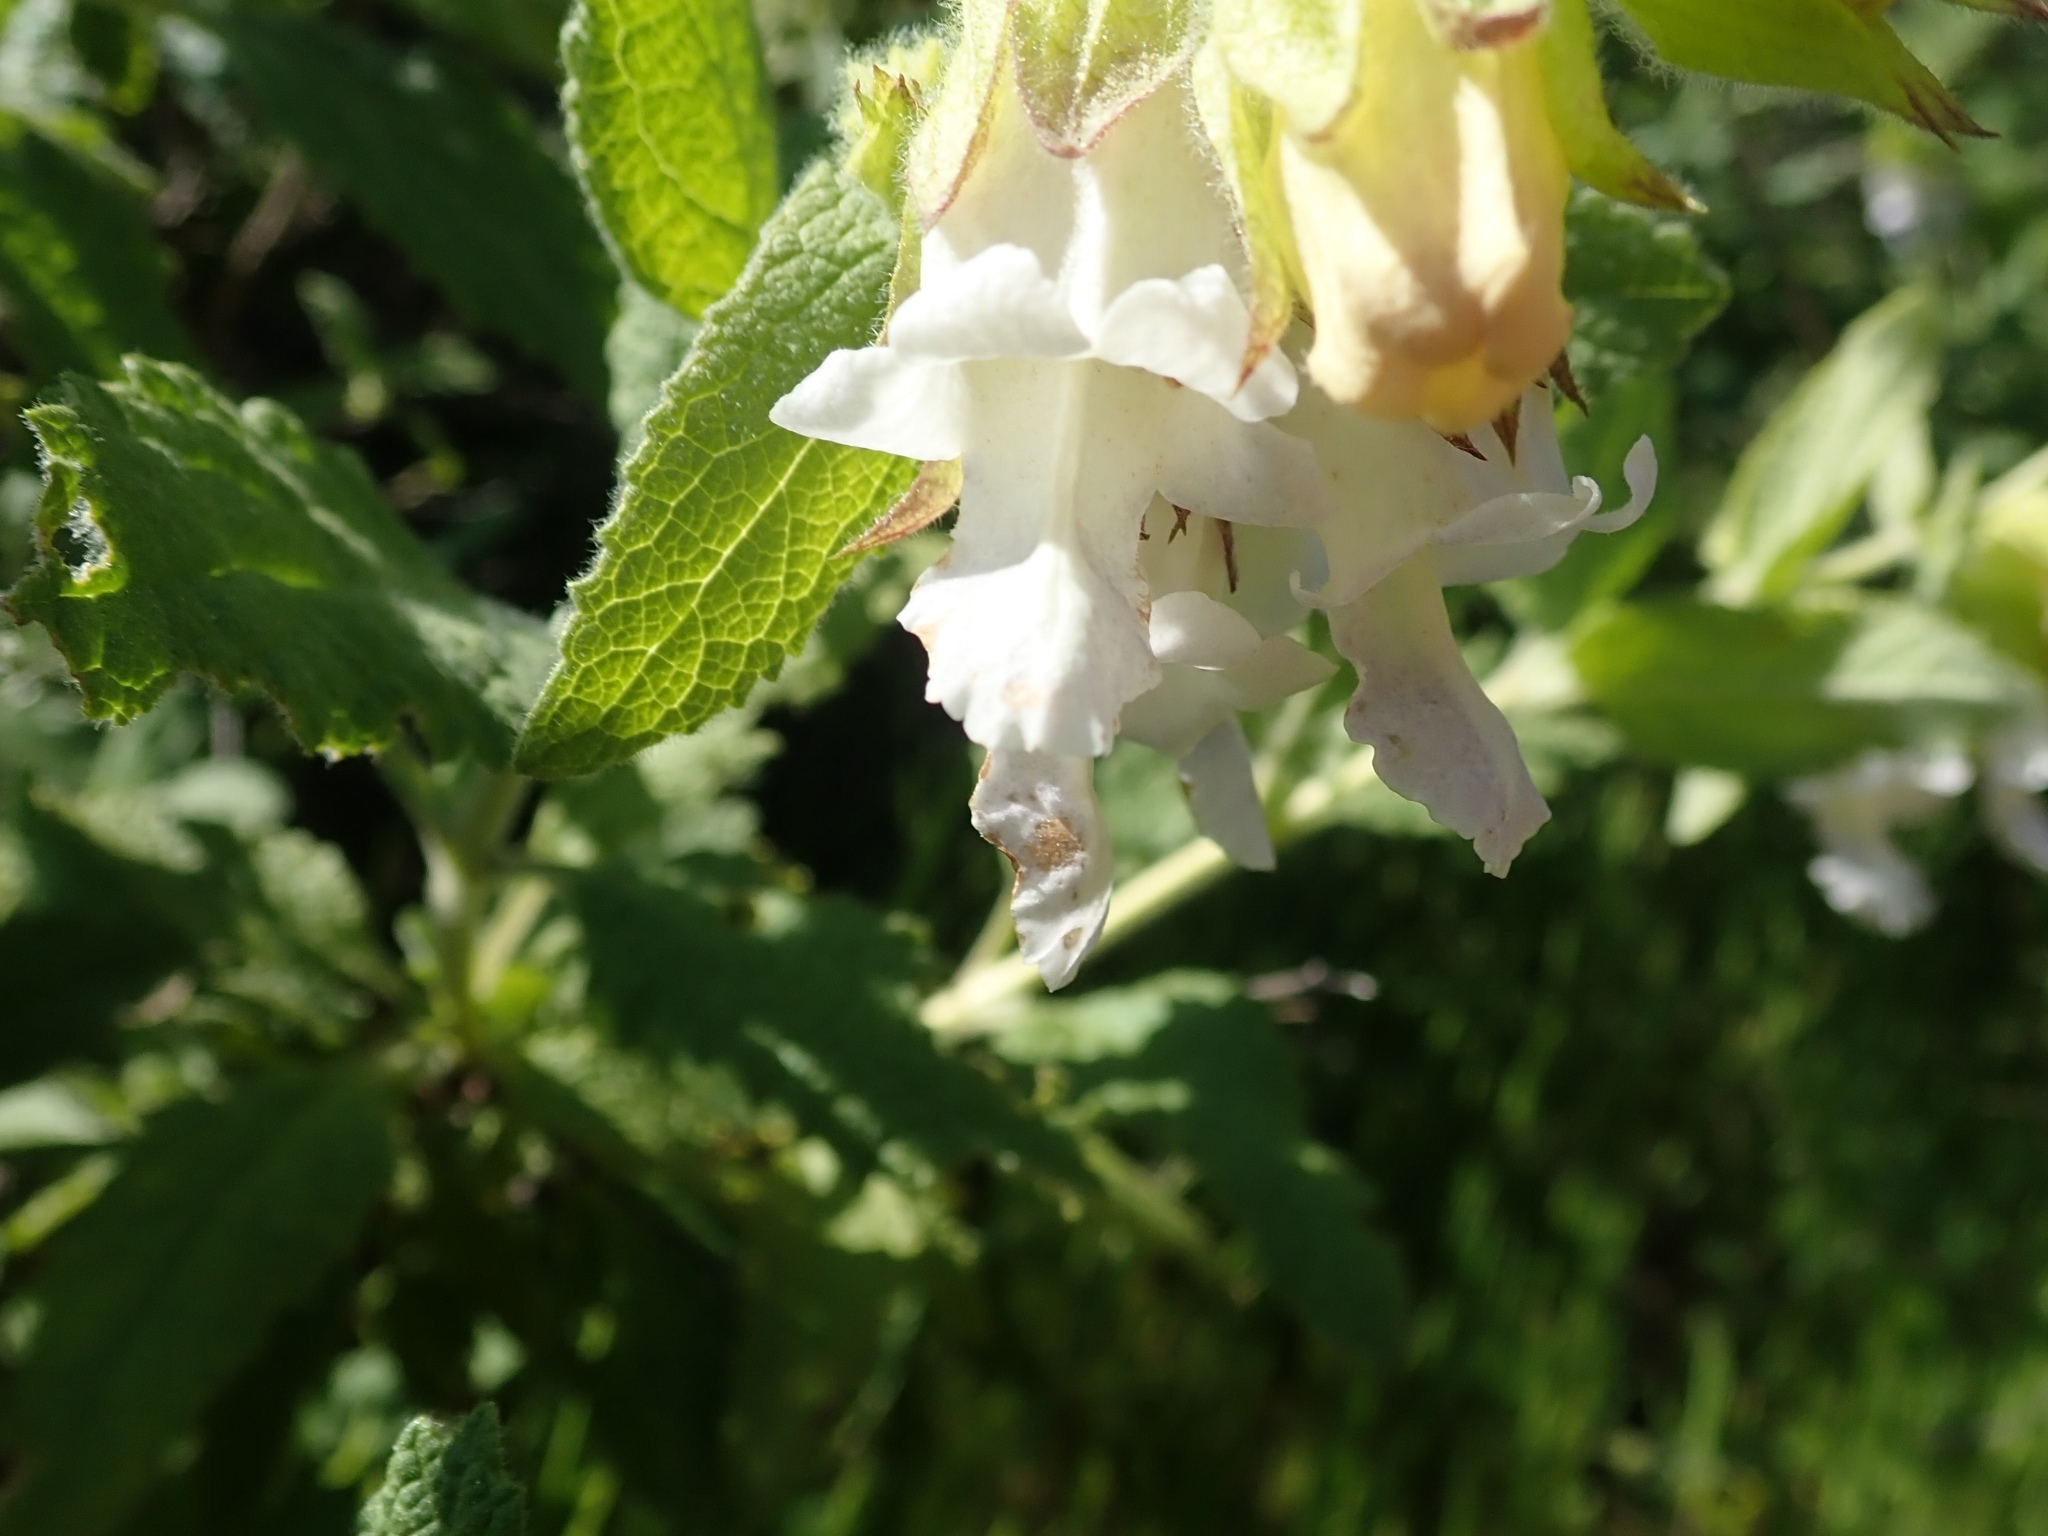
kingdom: Plantae
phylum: Tracheophyta
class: Magnoliopsida
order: Lamiales
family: Lamiaceae
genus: Lepechinia
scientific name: Lepechinia calycina
